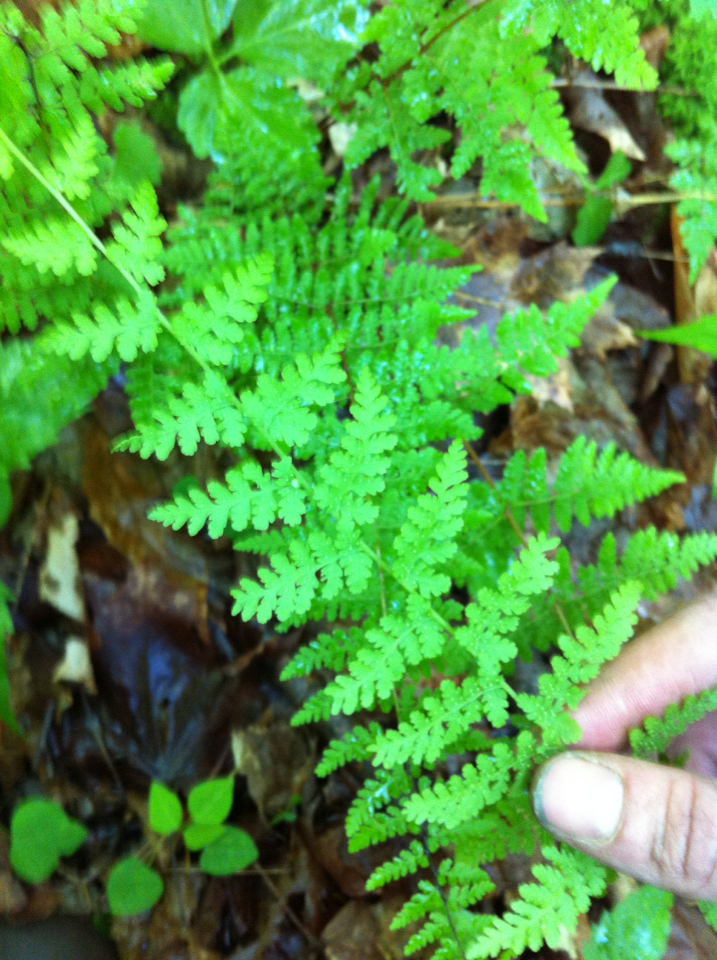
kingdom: Plantae
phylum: Tracheophyta
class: Polypodiopsida
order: Polypodiales
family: Cystopteridaceae
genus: Cystopteris
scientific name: Cystopteris bulbifera
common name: Bulblet bladder fern
